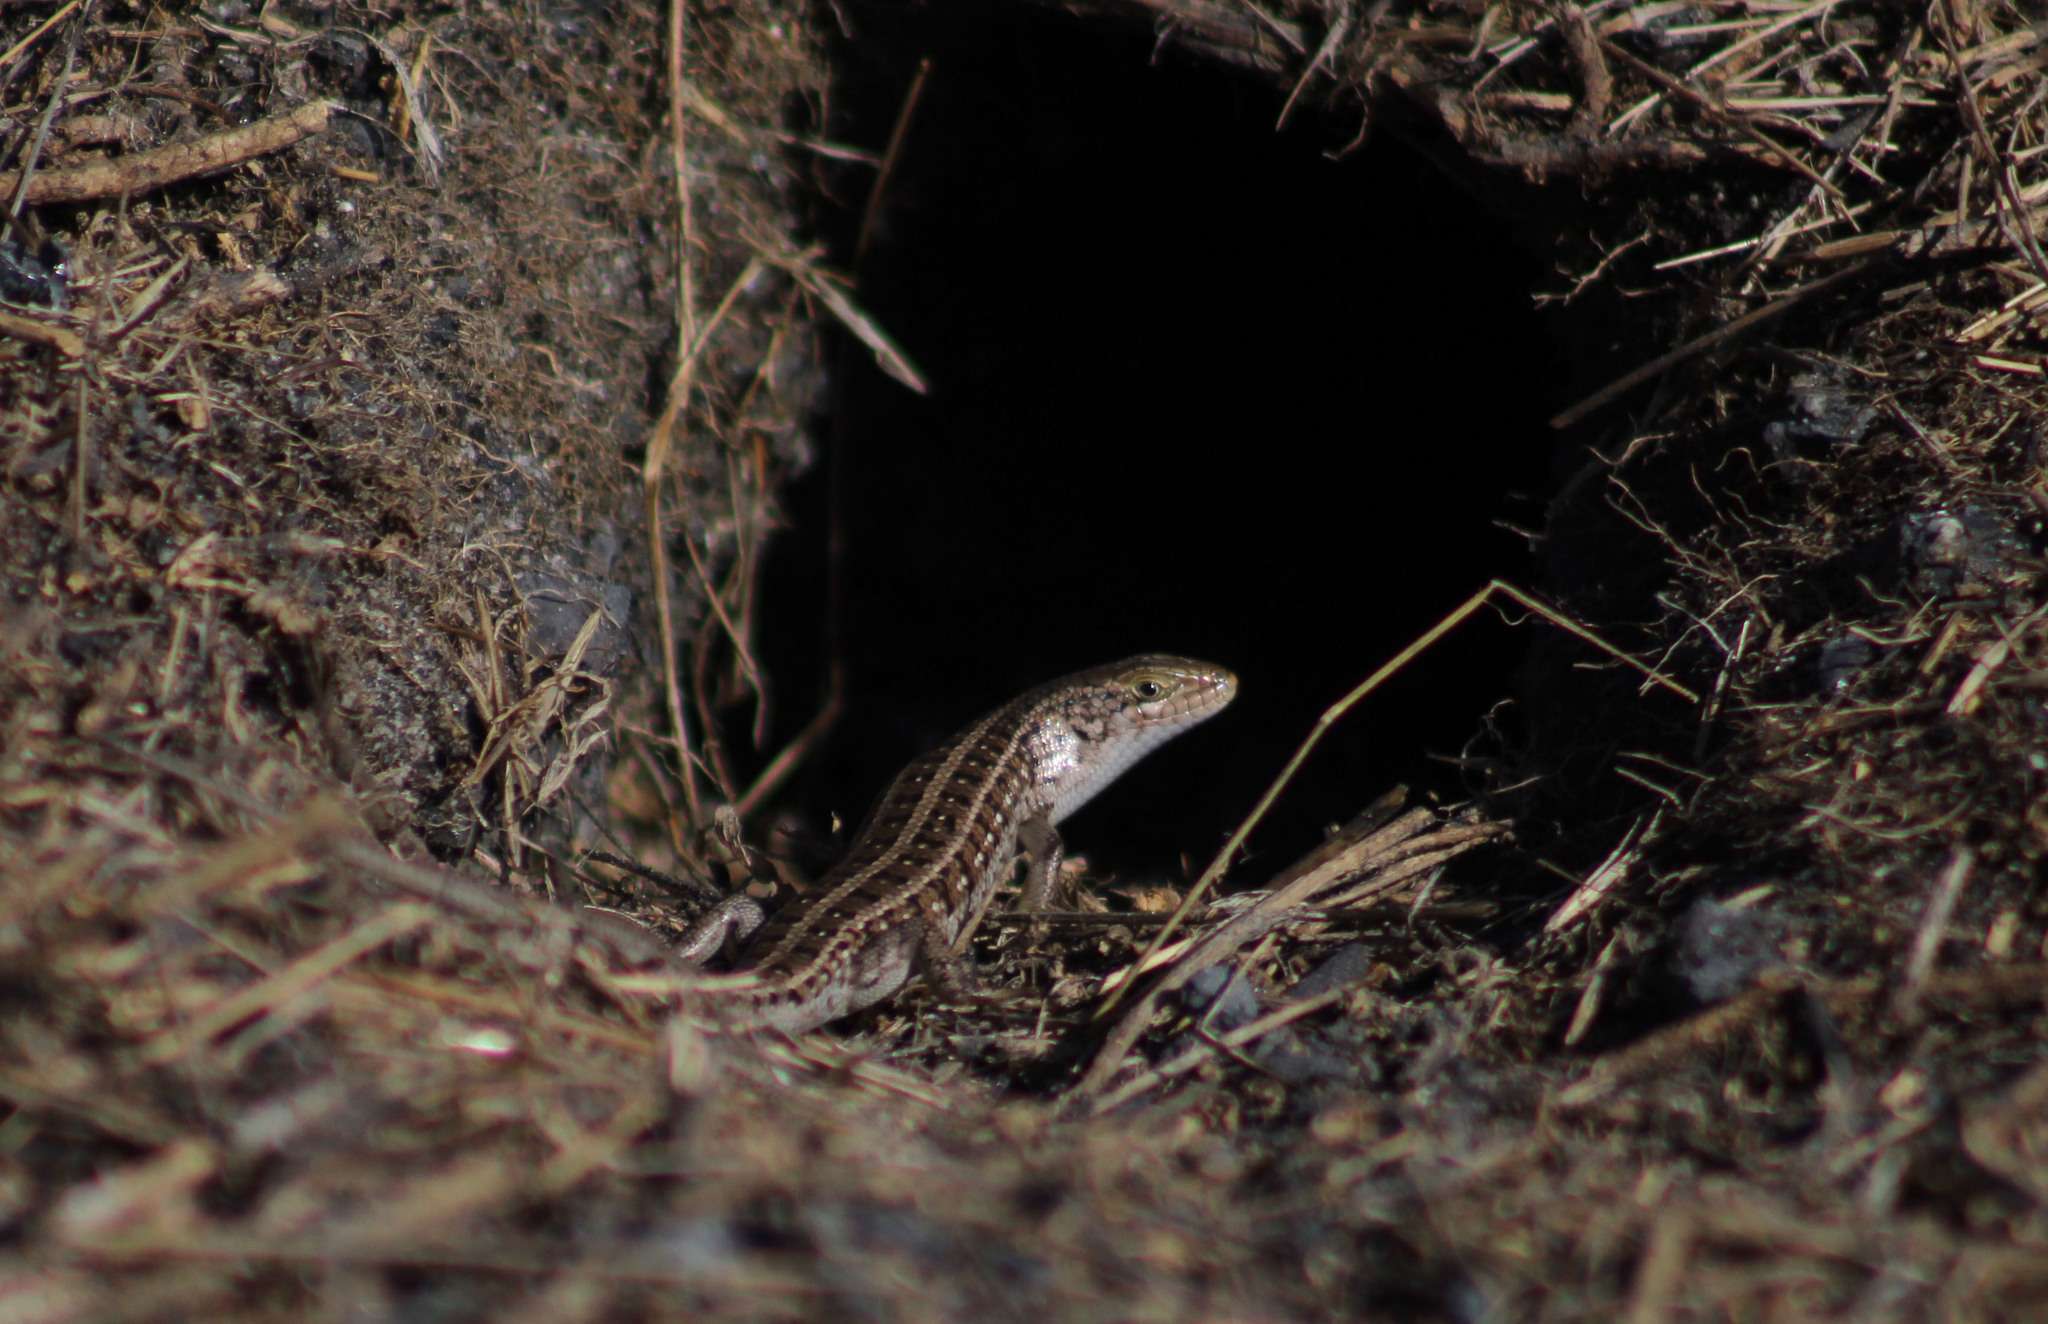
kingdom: Animalia
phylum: Chordata
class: Squamata
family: Scincidae
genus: Trachylepis
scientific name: Trachylepis capensis
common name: Cape skink
